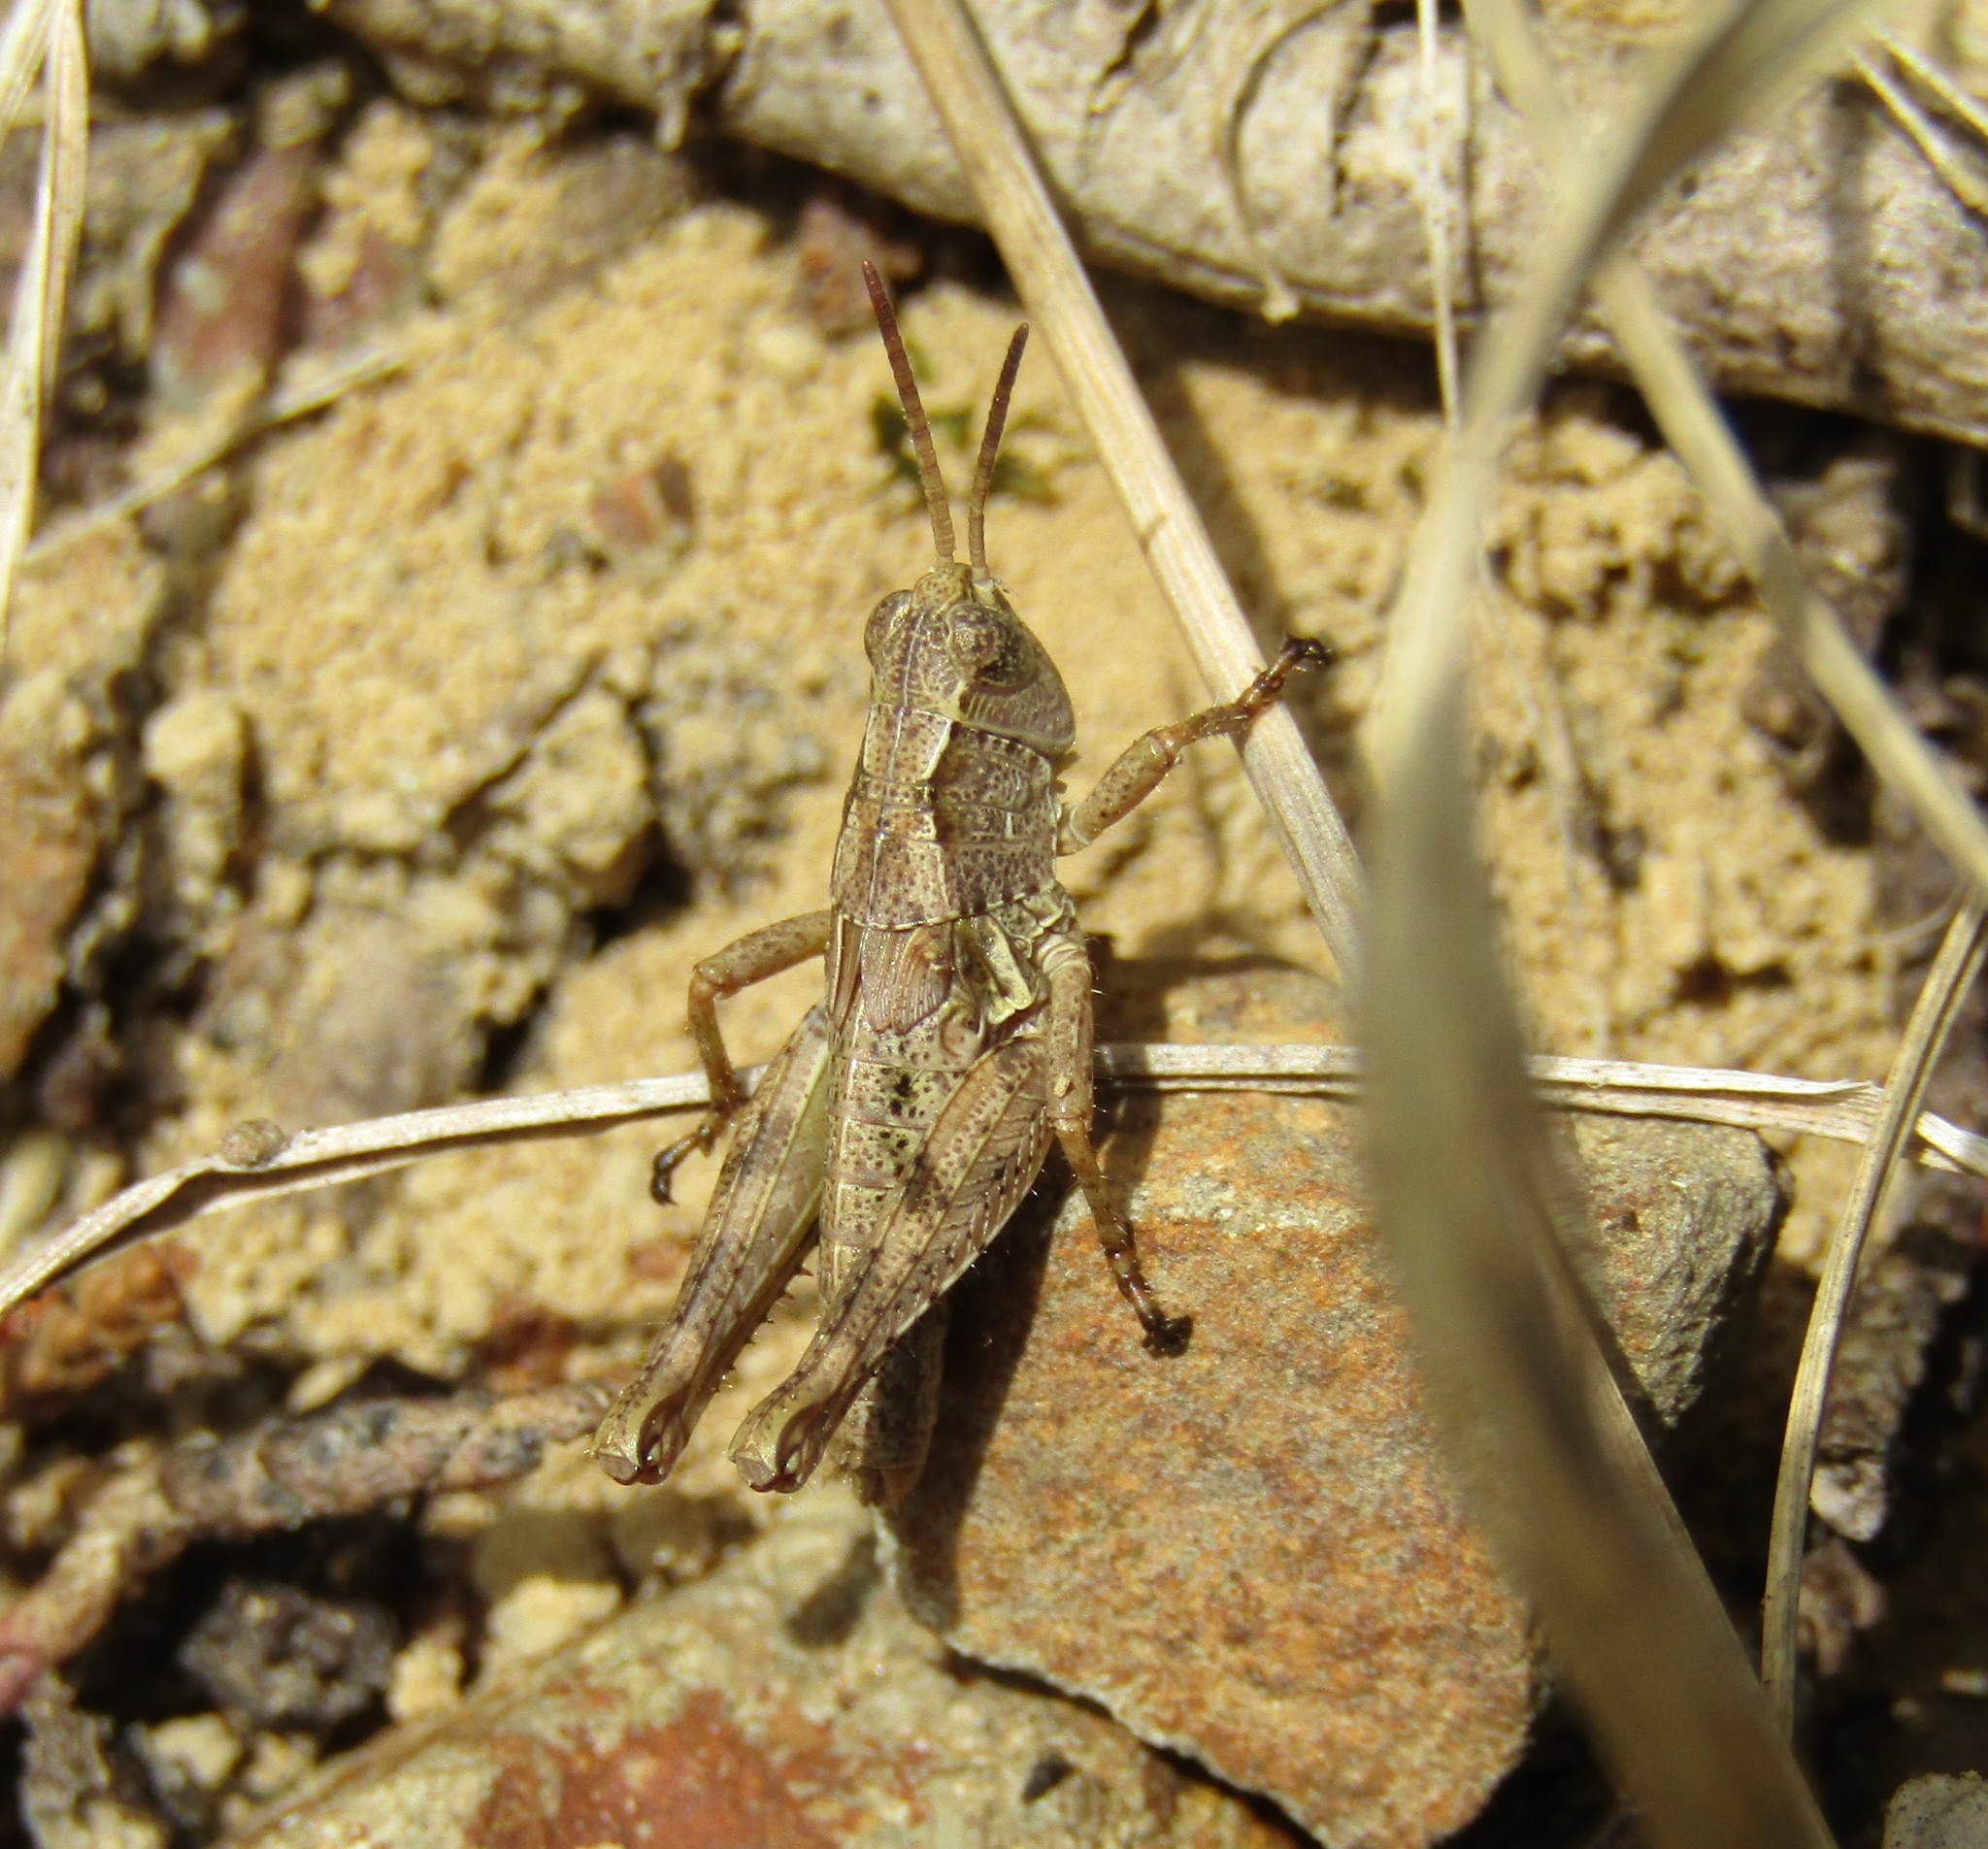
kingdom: Animalia
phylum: Arthropoda
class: Insecta
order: Orthoptera
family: Acrididae
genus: Phaulacridium
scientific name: Phaulacridium marginale
